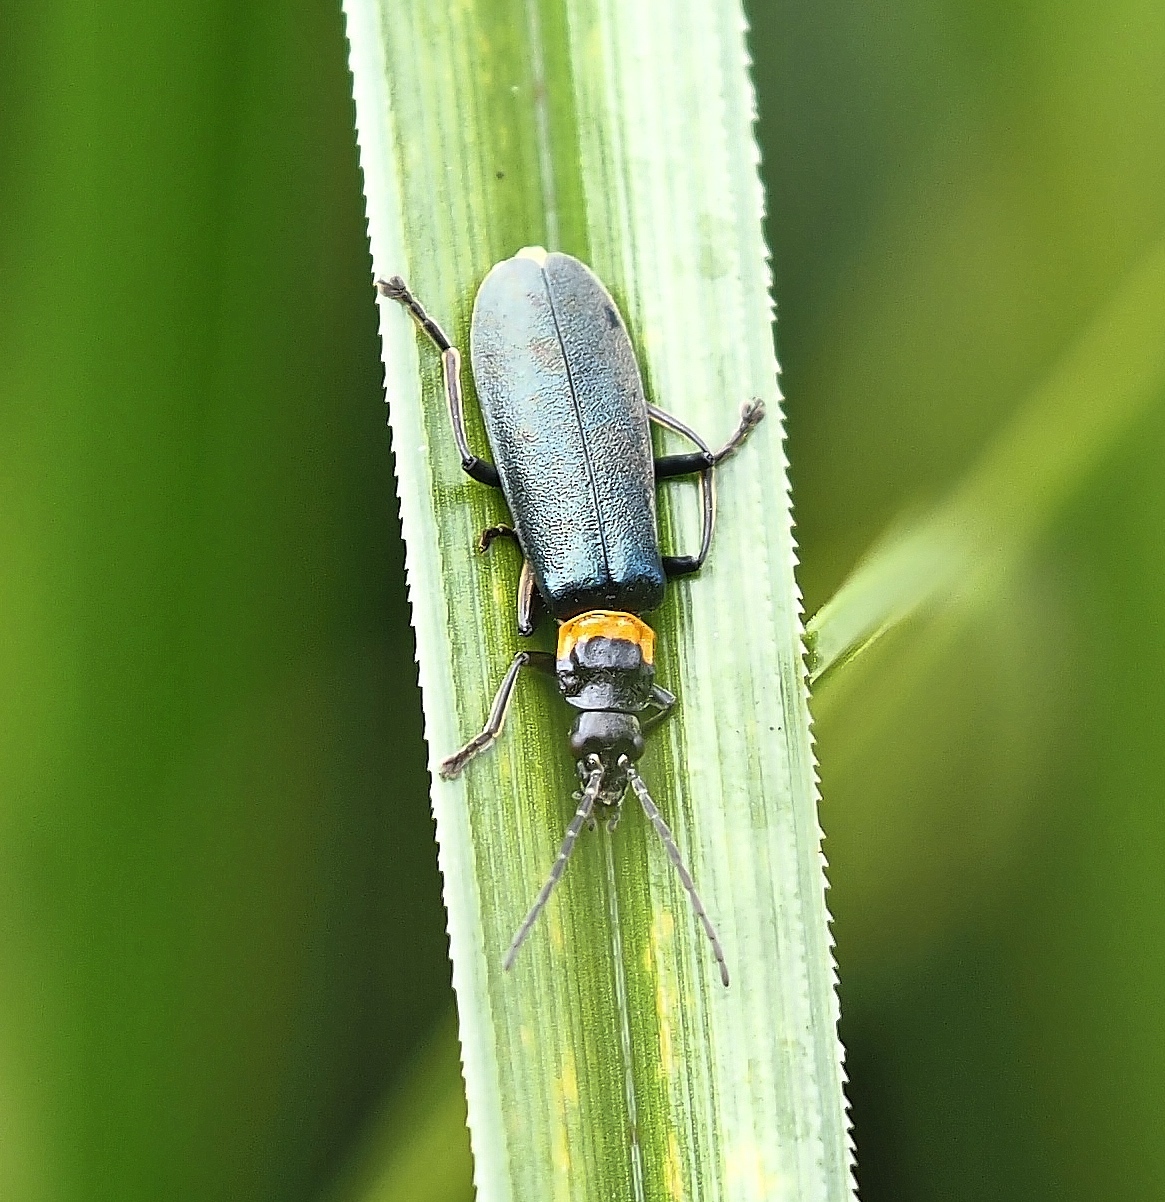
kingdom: Animalia
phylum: Arthropoda
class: Insecta
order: Coleoptera
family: Cantharidae
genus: Chauliognathus
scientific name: Chauliognathus
